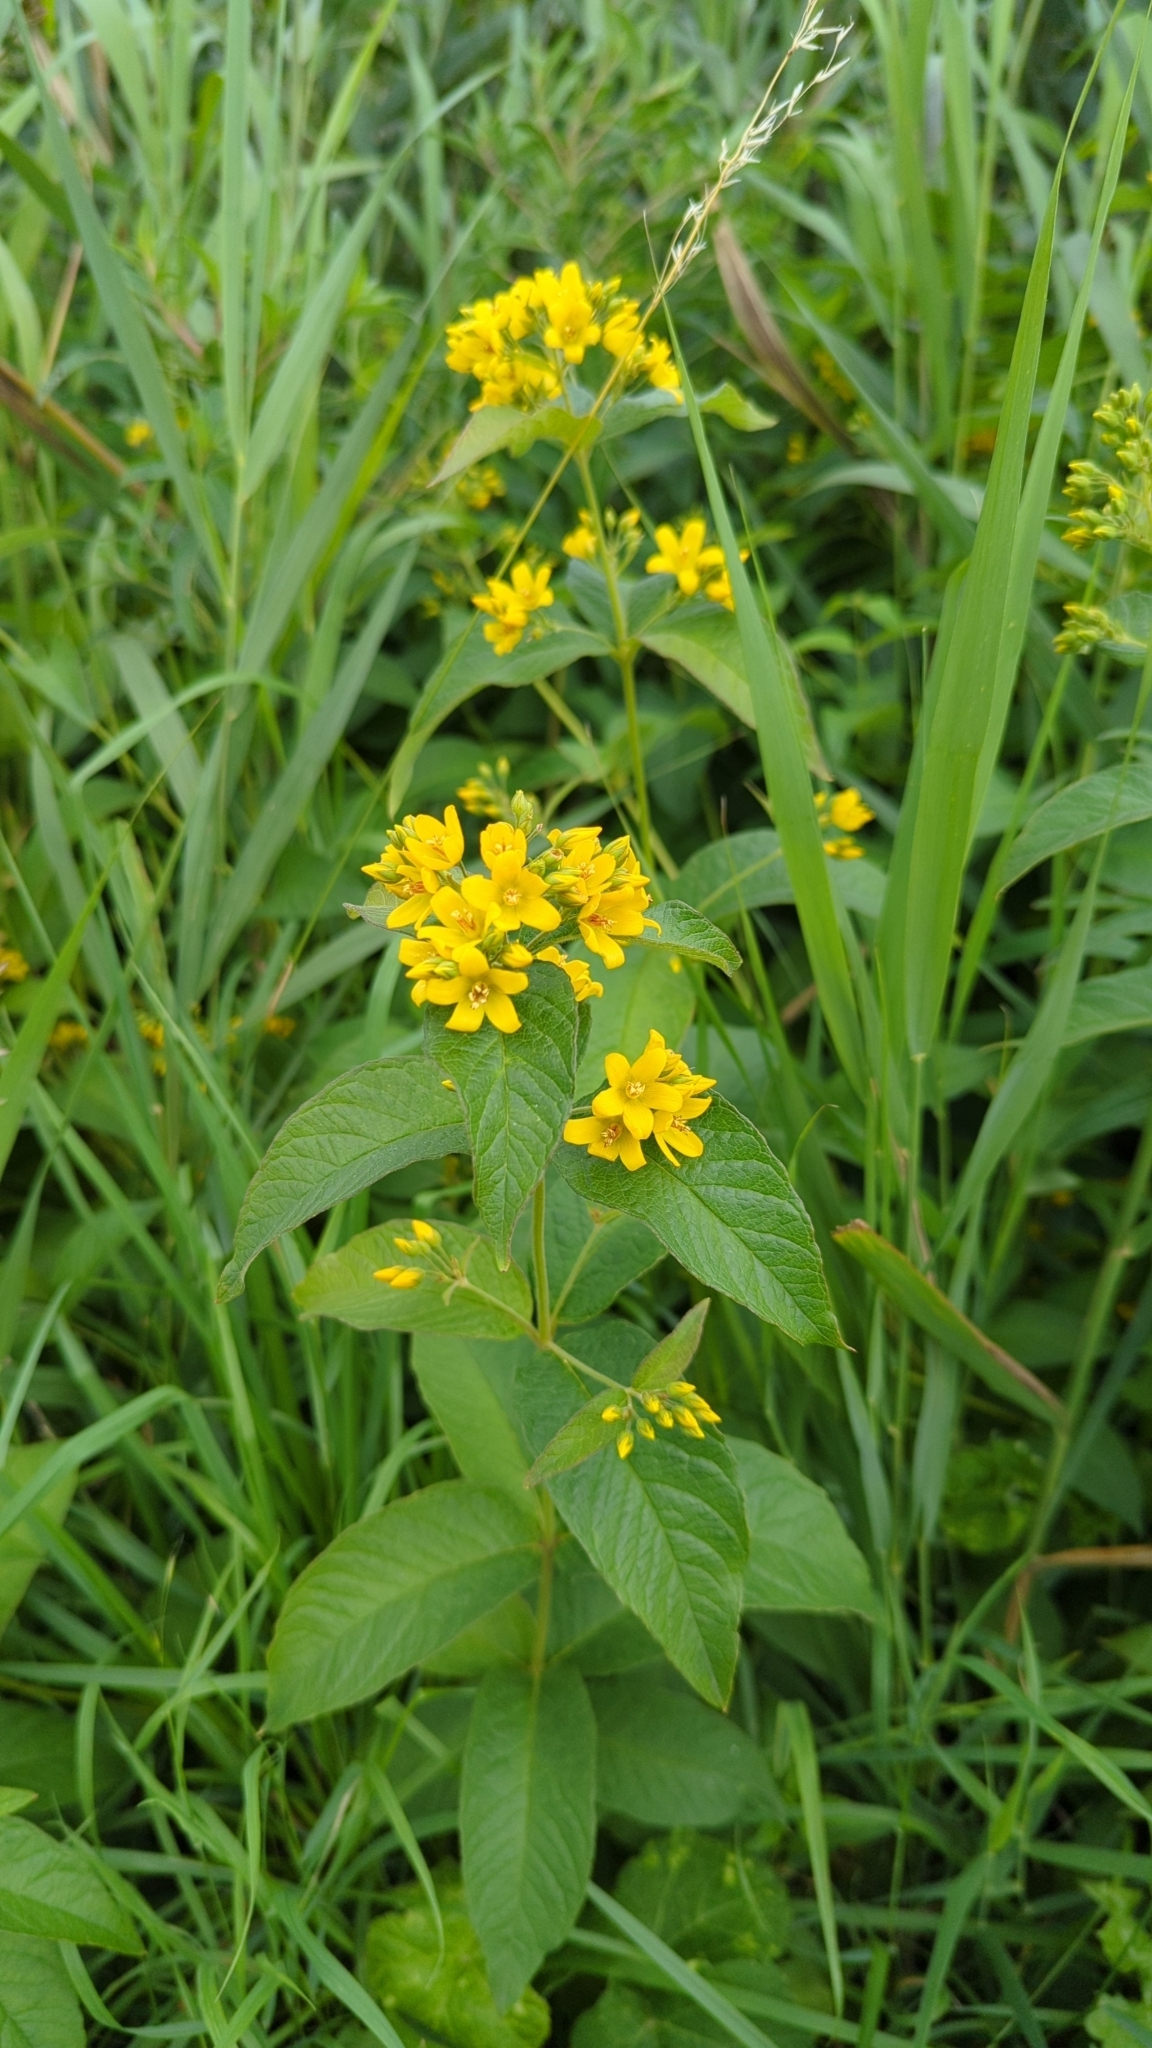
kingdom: Plantae
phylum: Tracheophyta
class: Magnoliopsida
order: Ericales
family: Primulaceae
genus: Lysimachia
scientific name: Lysimachia vulgaris
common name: Yellow loosestrife
